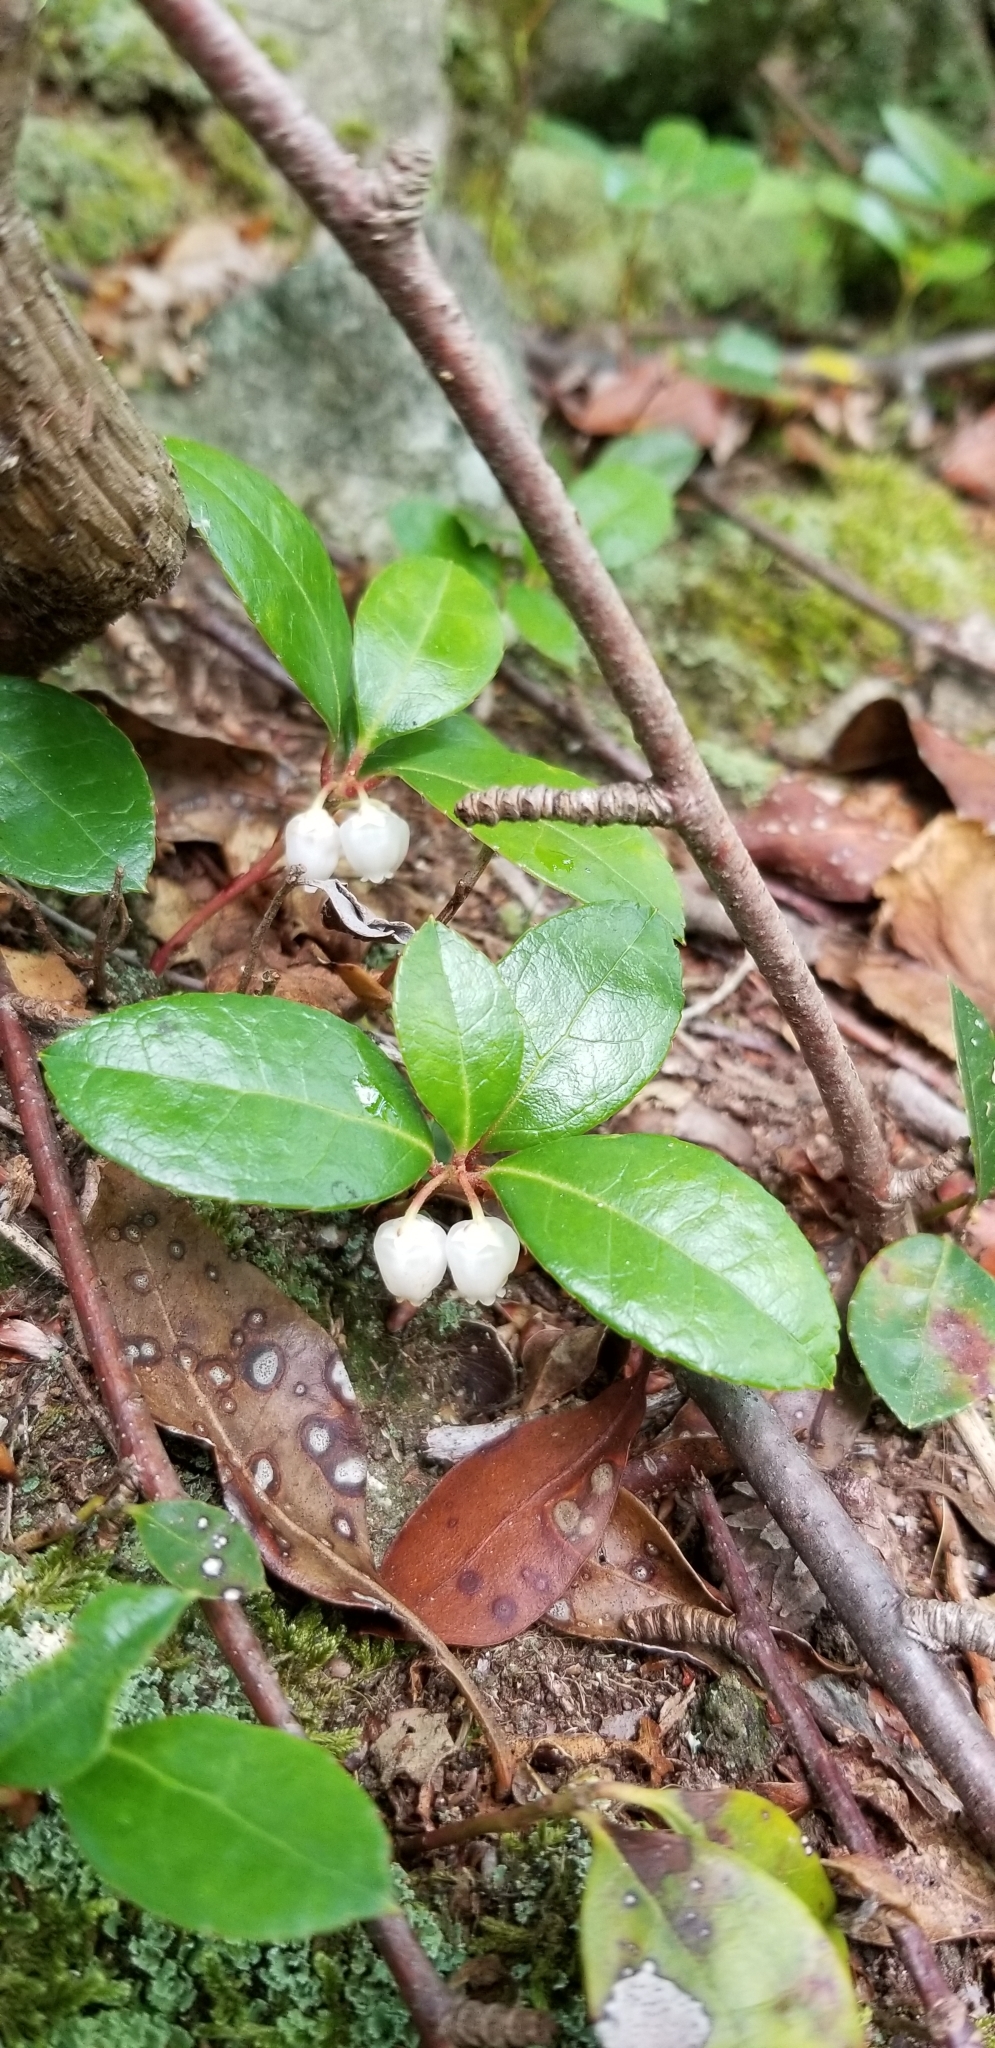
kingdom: Plantae
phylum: Tracheophyta
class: Magnoliopsida
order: Ericales
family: Ericaceae
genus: Gaultheria
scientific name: Gaultheria procumbens
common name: Checkerberry
